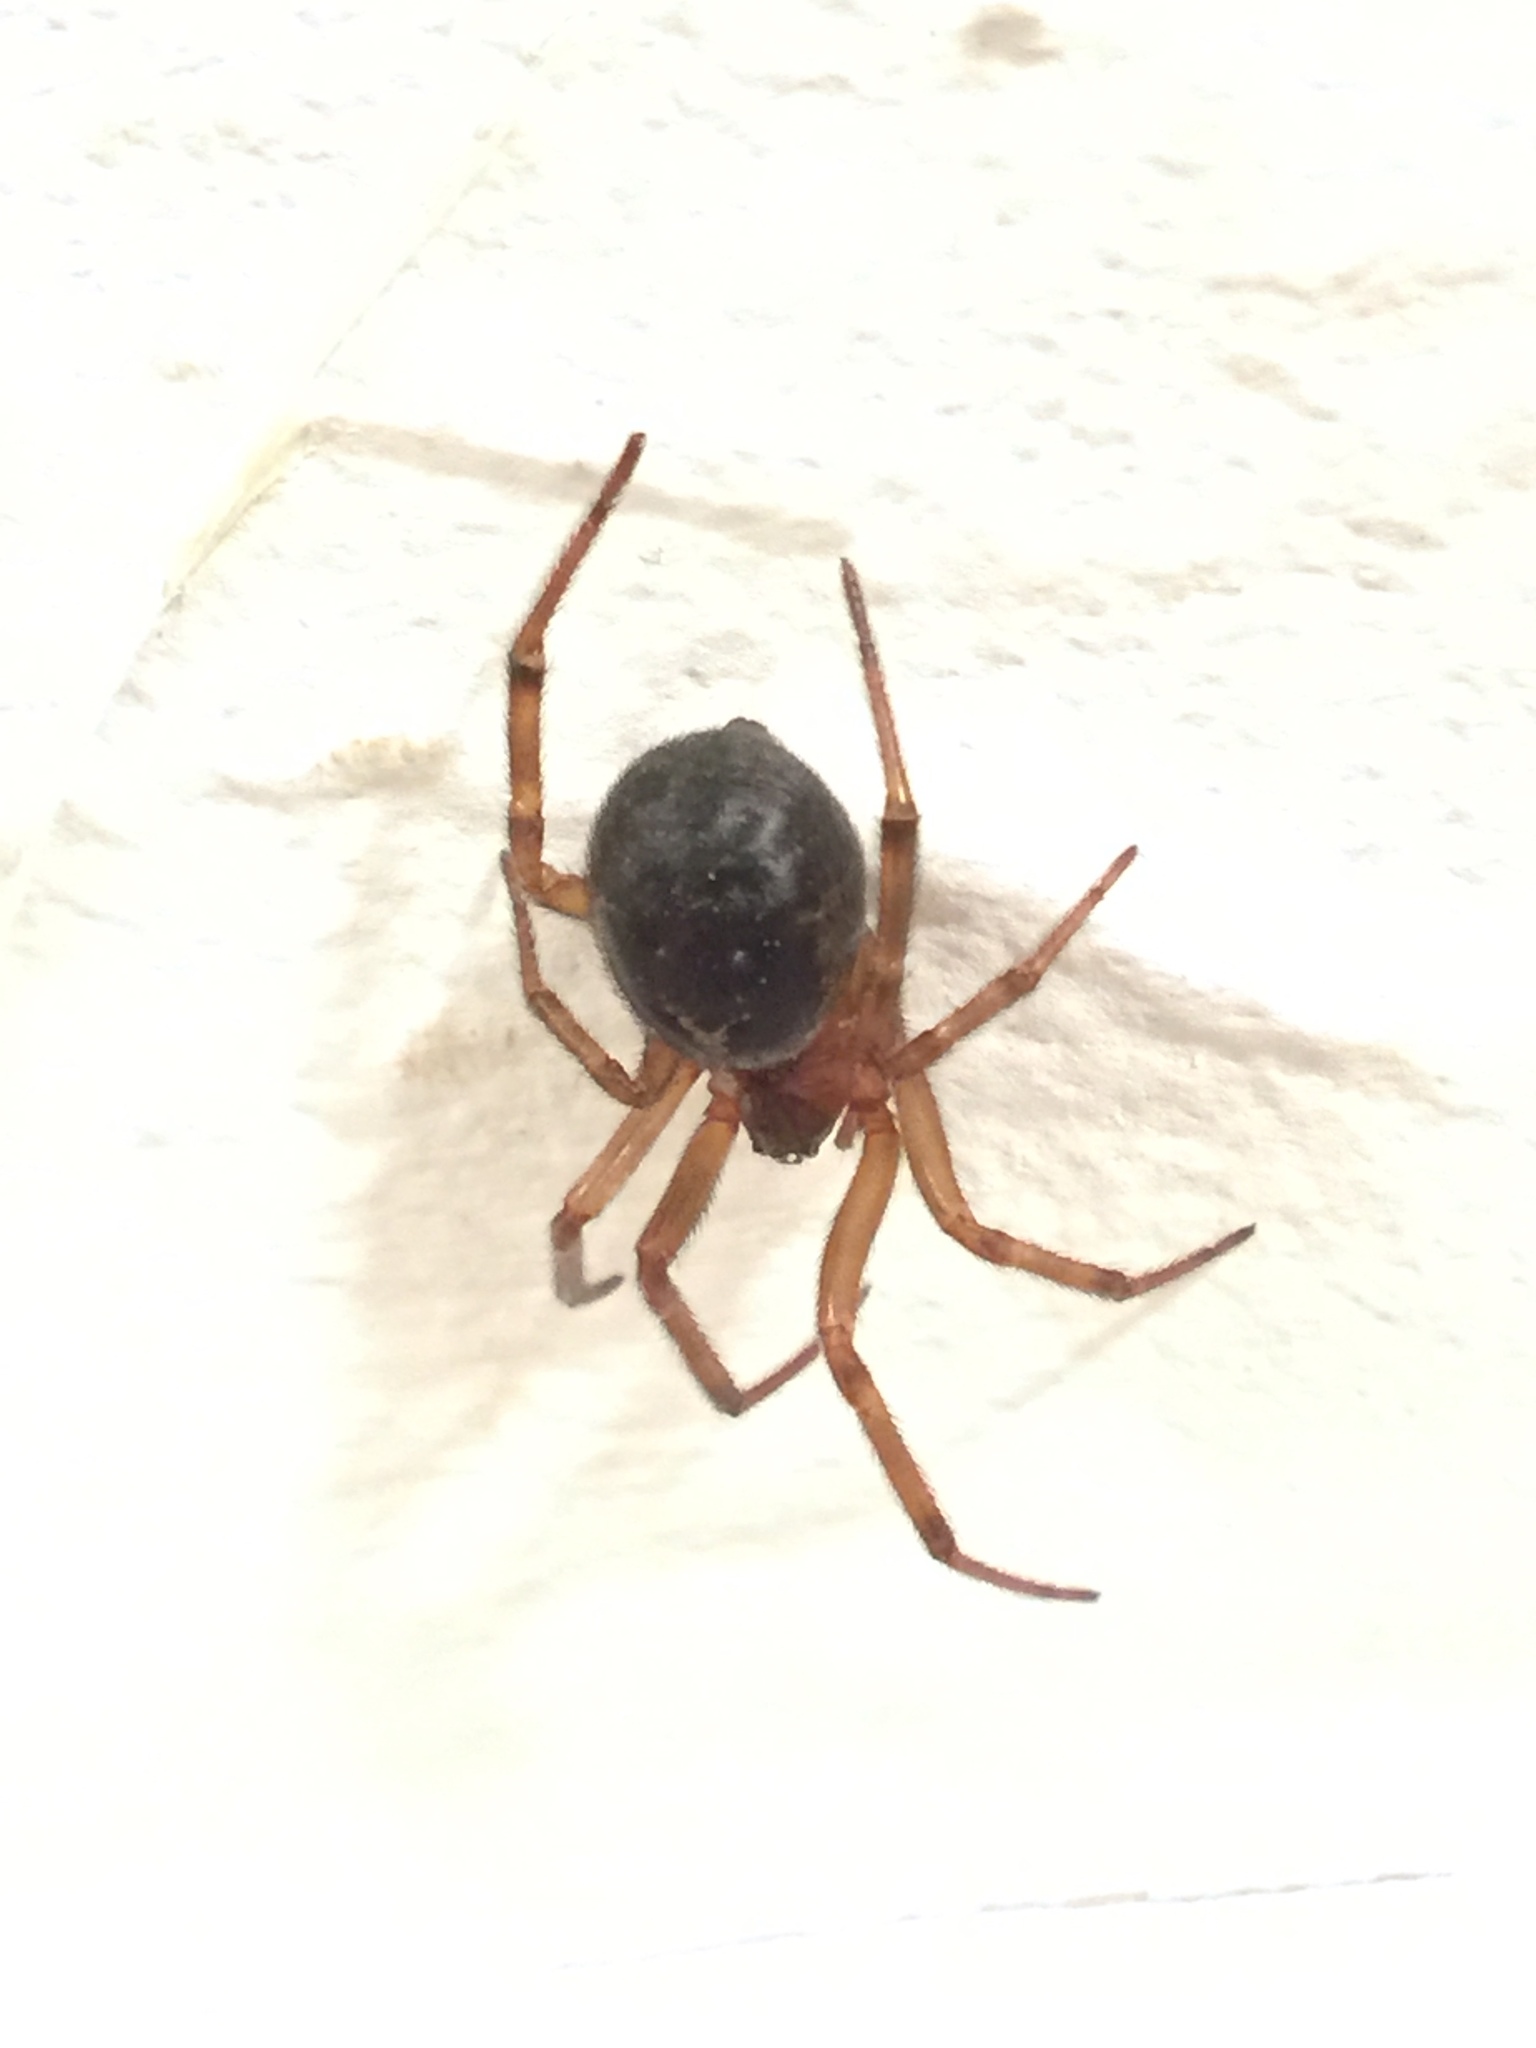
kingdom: Animalia
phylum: Arthropoda
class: Arachnida
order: Araneae
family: Theridiidae
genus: Steatoda
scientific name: Steatoda nobilis
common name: Cobweb weaver
